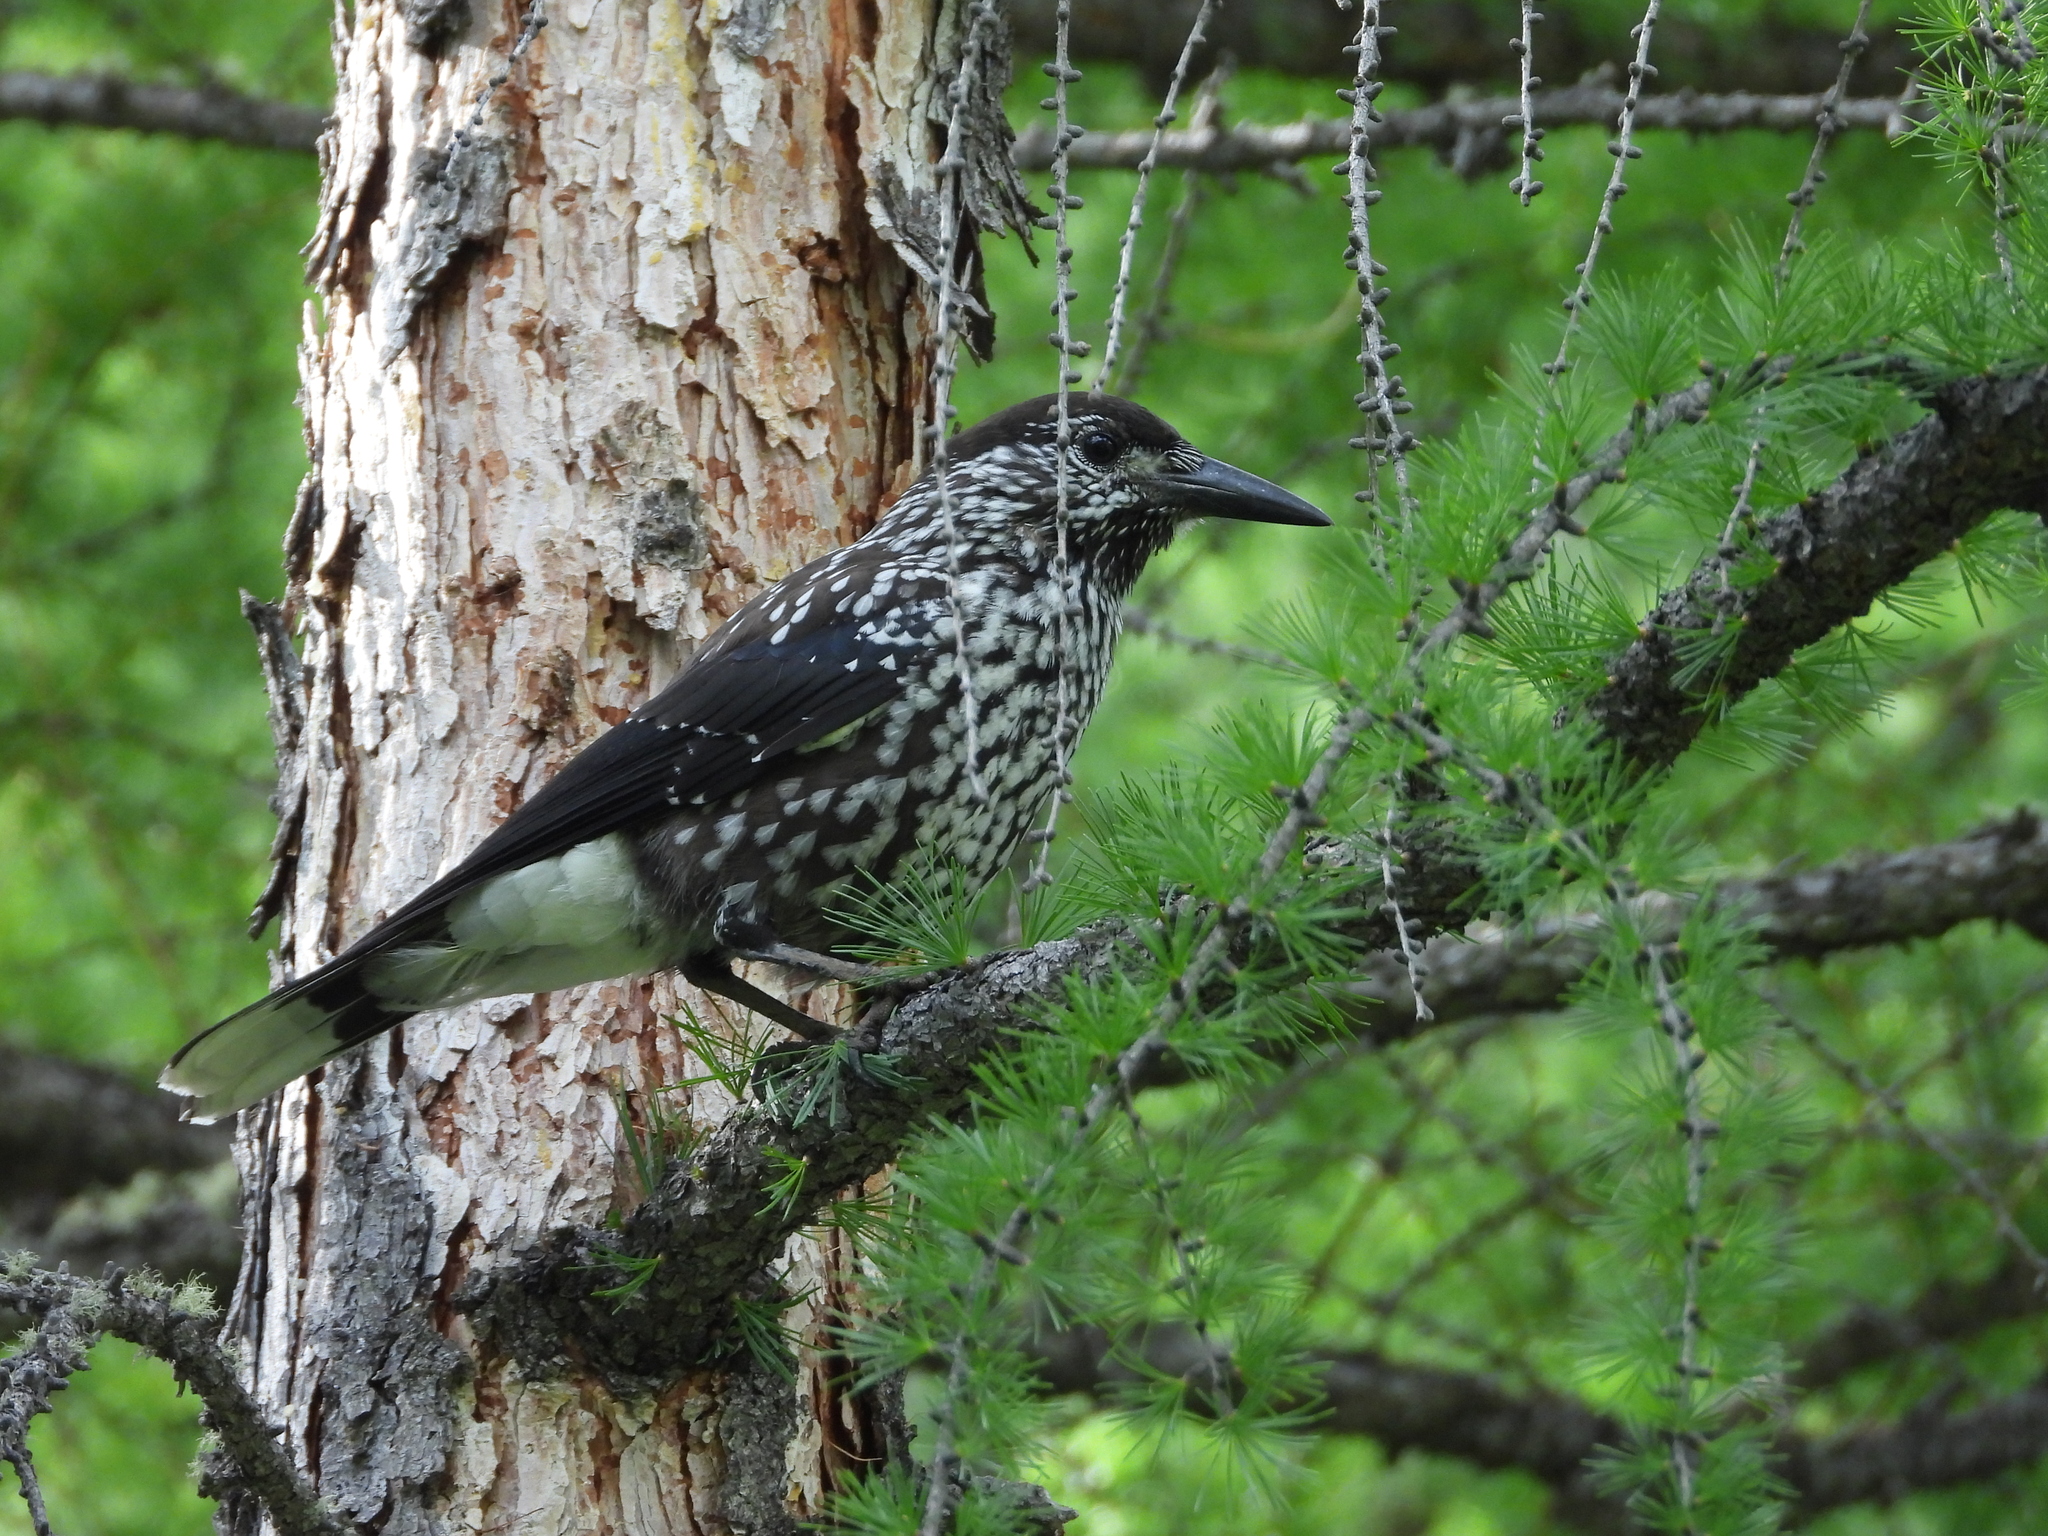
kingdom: Animalia
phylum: Chordata
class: Aves
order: Passeriformes
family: Corvidae
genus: Nucifraga
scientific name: Nucifraga caryocatactes
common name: Spotted nutcracker
